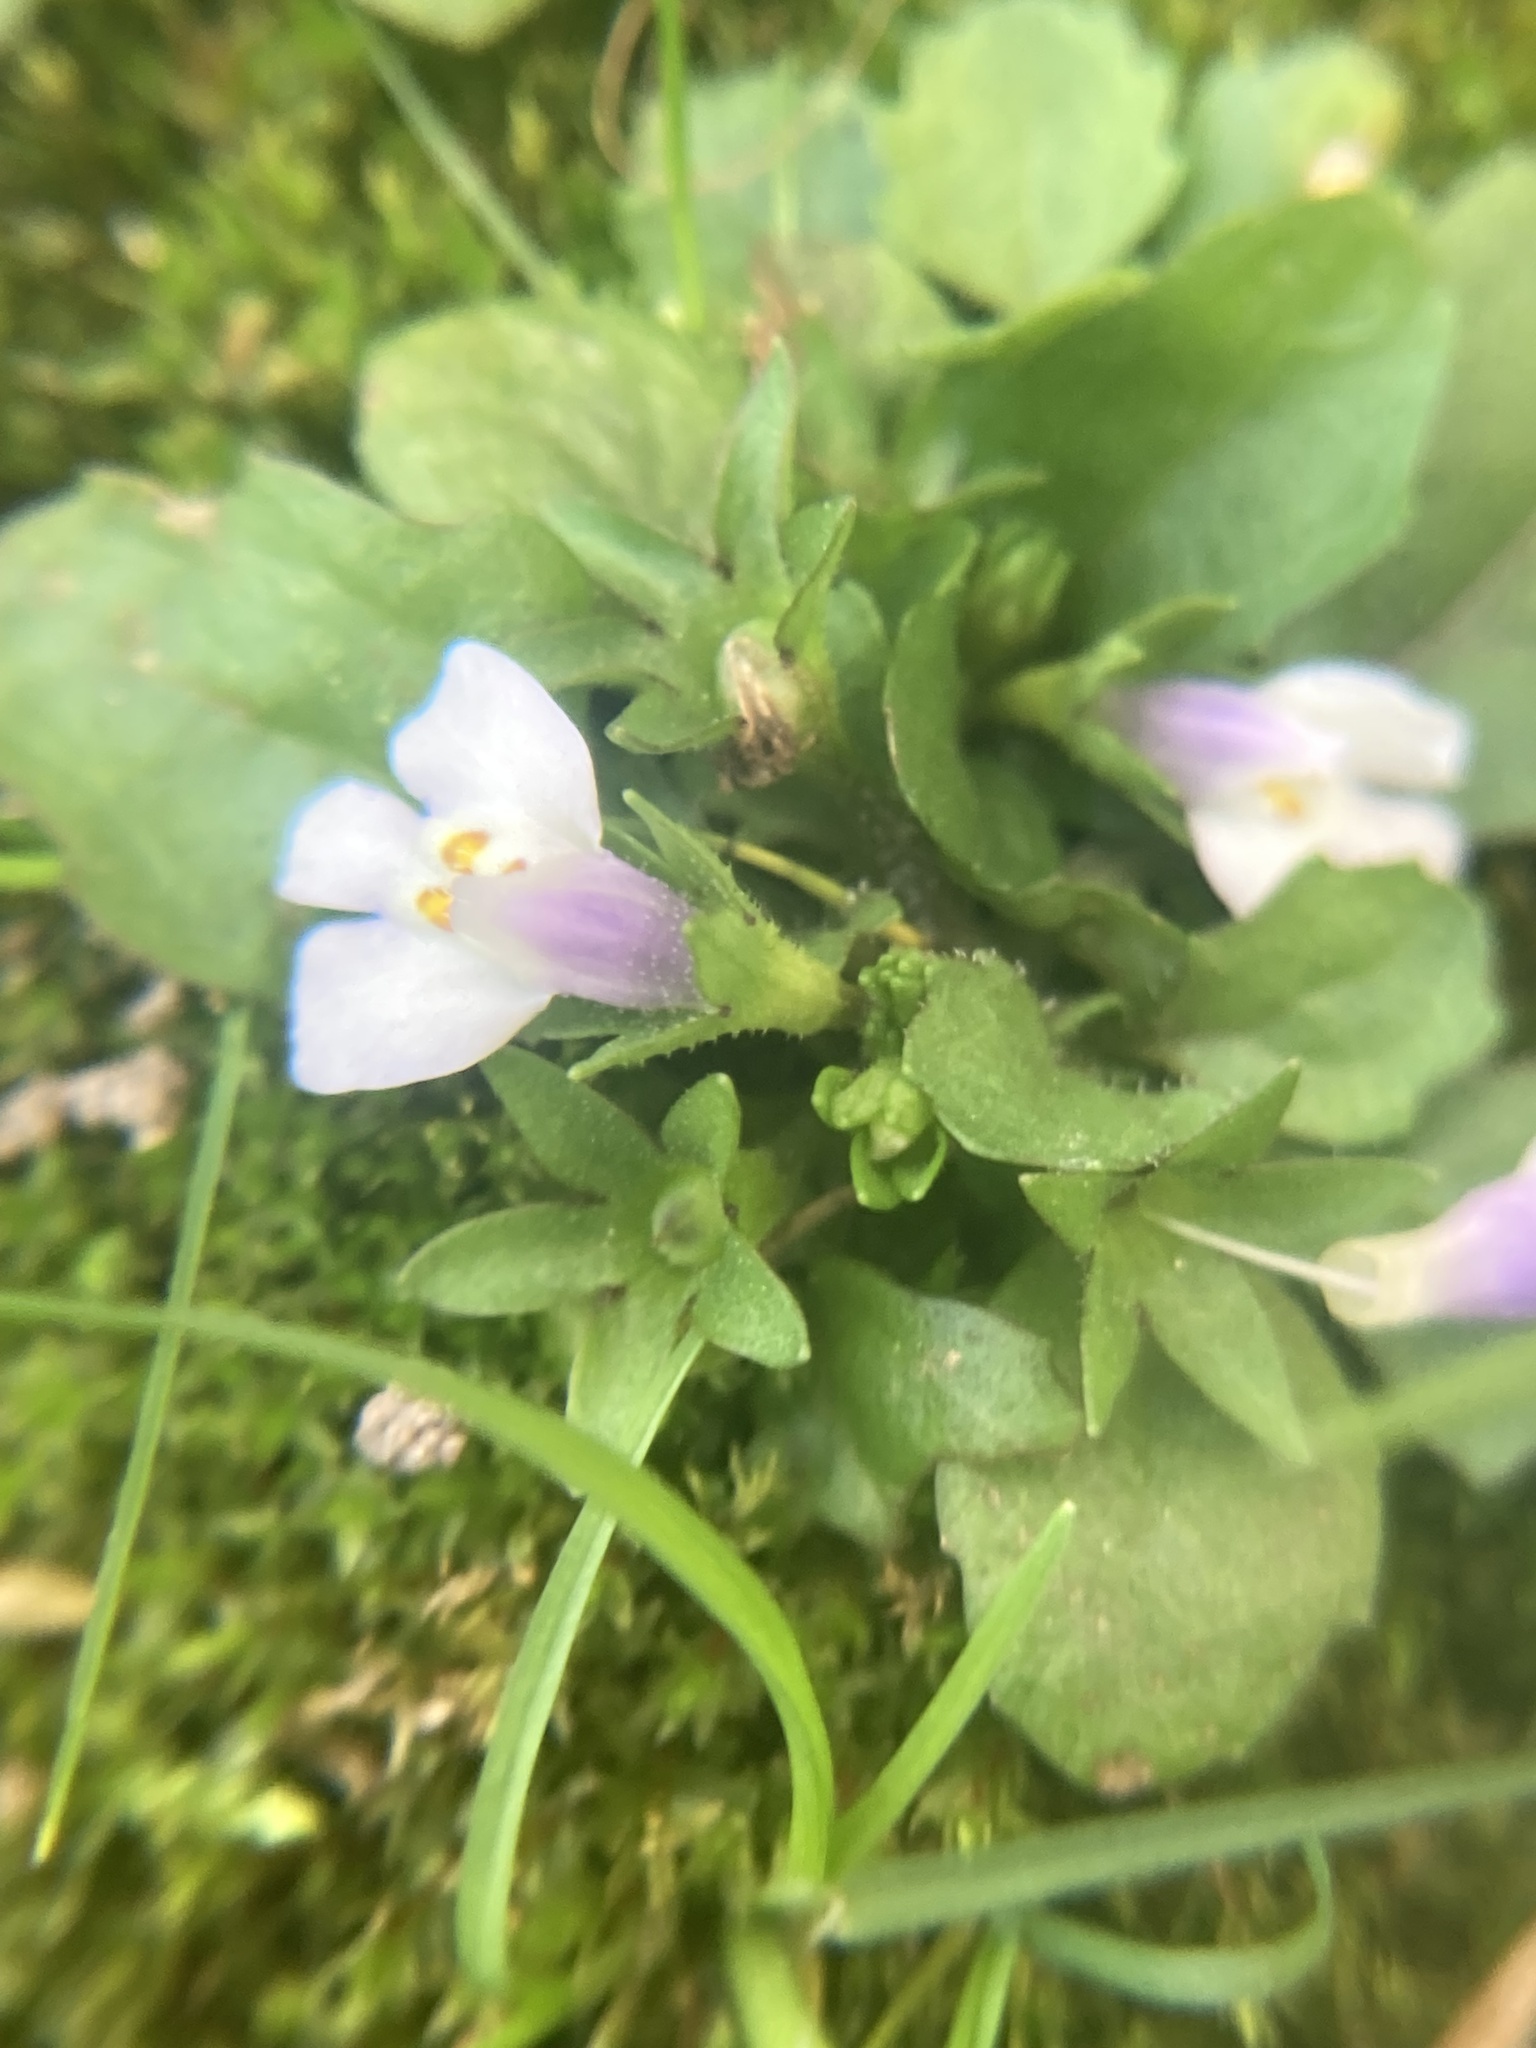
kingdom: Plantae
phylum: Tracheophyta
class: Magnoliopsida
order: Lamiales
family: Mazaceae
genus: Mazus
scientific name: Mazus pumilus
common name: Japanese mazus
